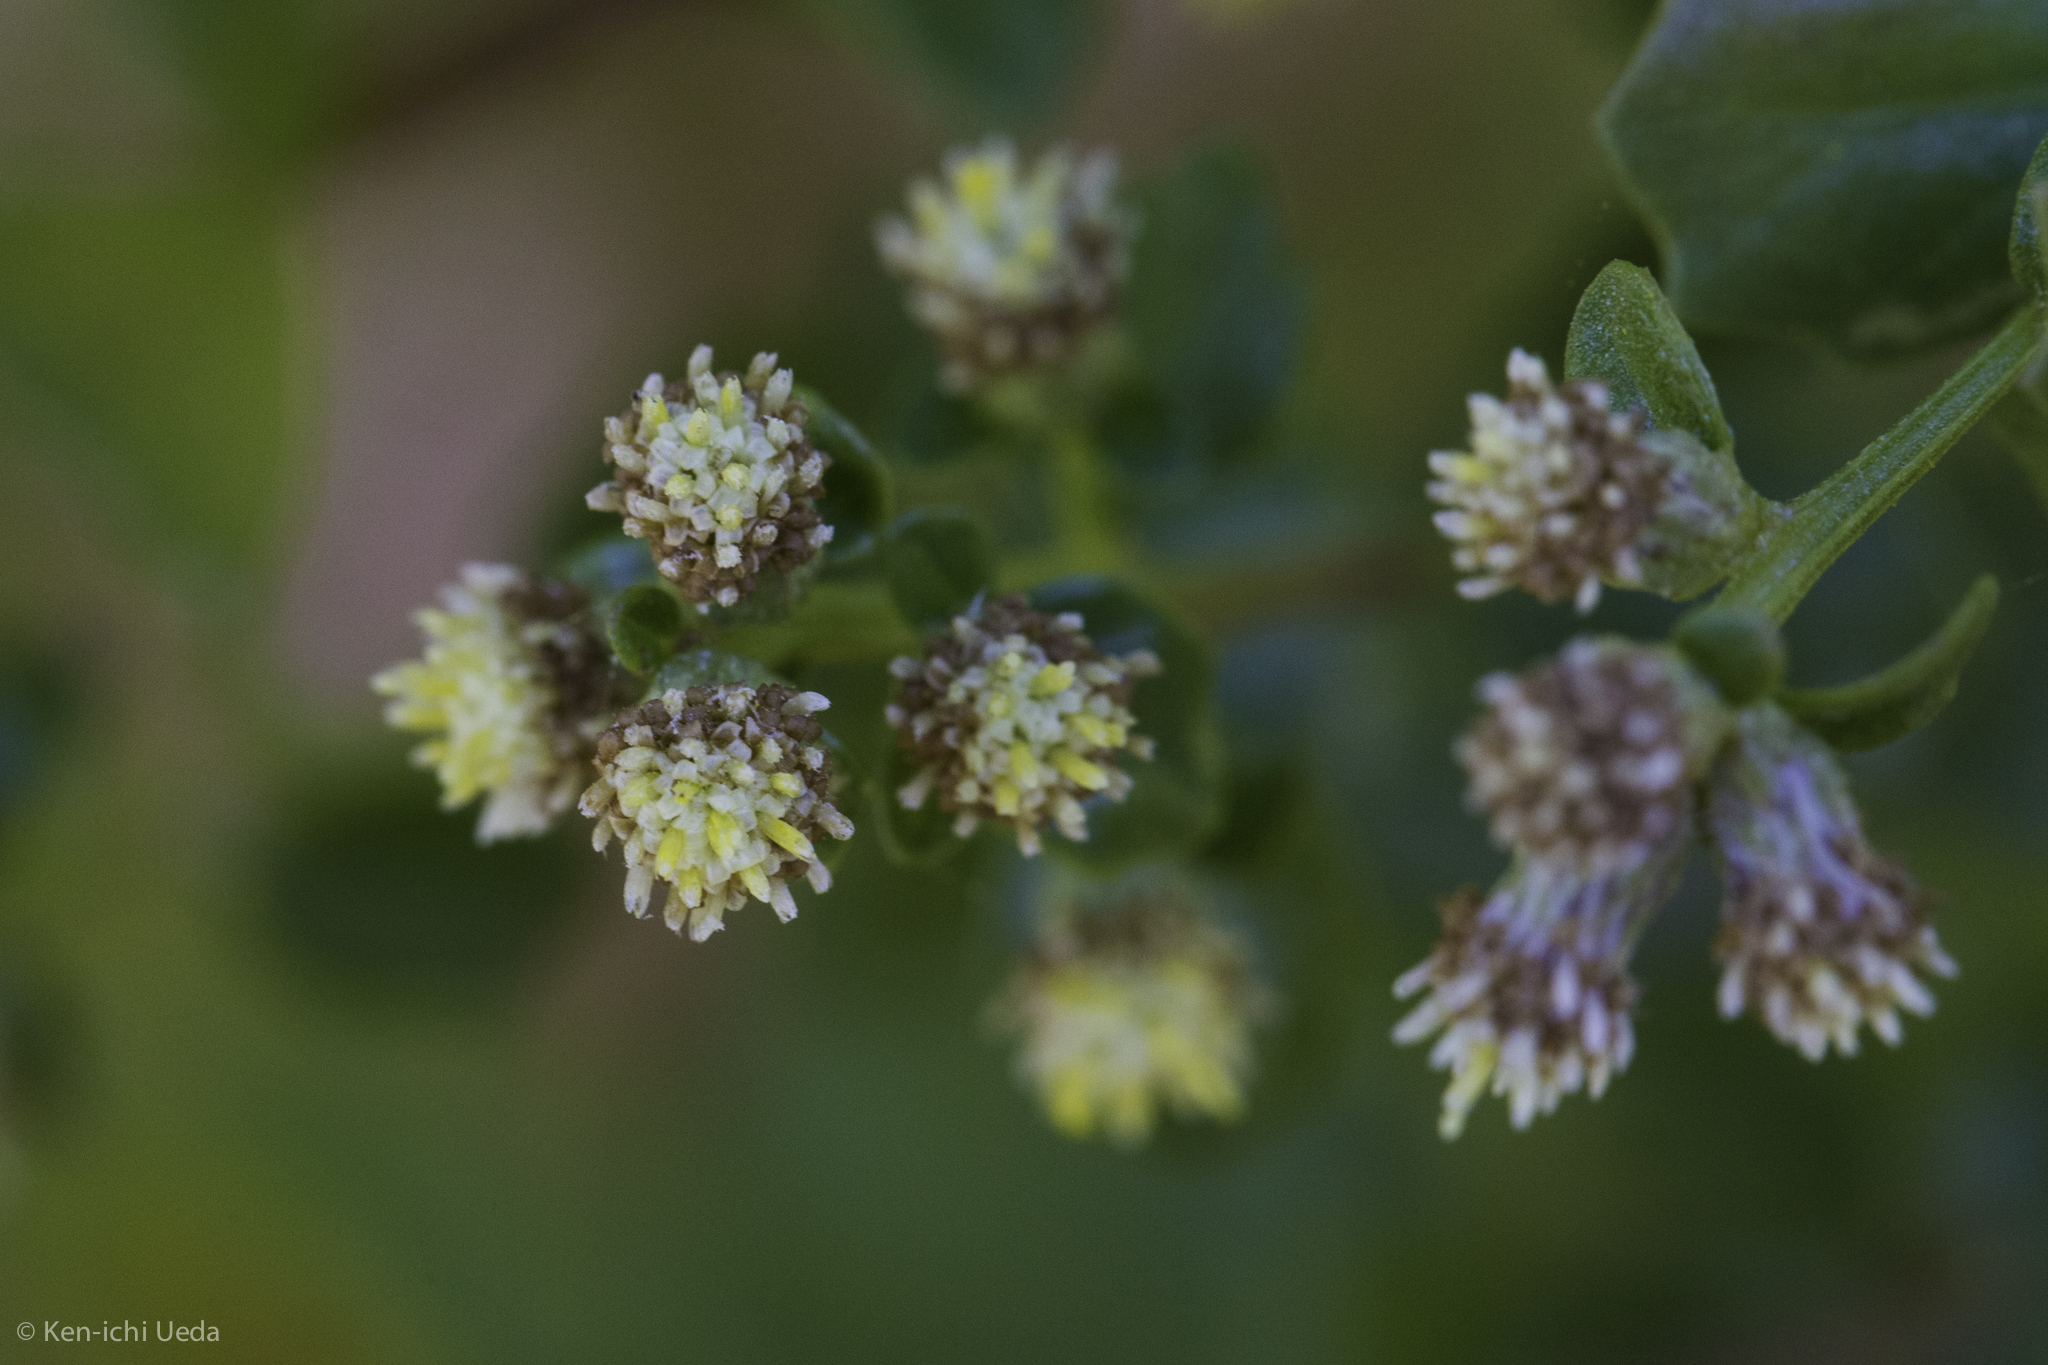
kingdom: Plantae
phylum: Tracheophyta
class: Magnoliopsida
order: Asterales
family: Asteraceae
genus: Baccharis
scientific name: Baccharis pilularis
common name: Coyotebrush
